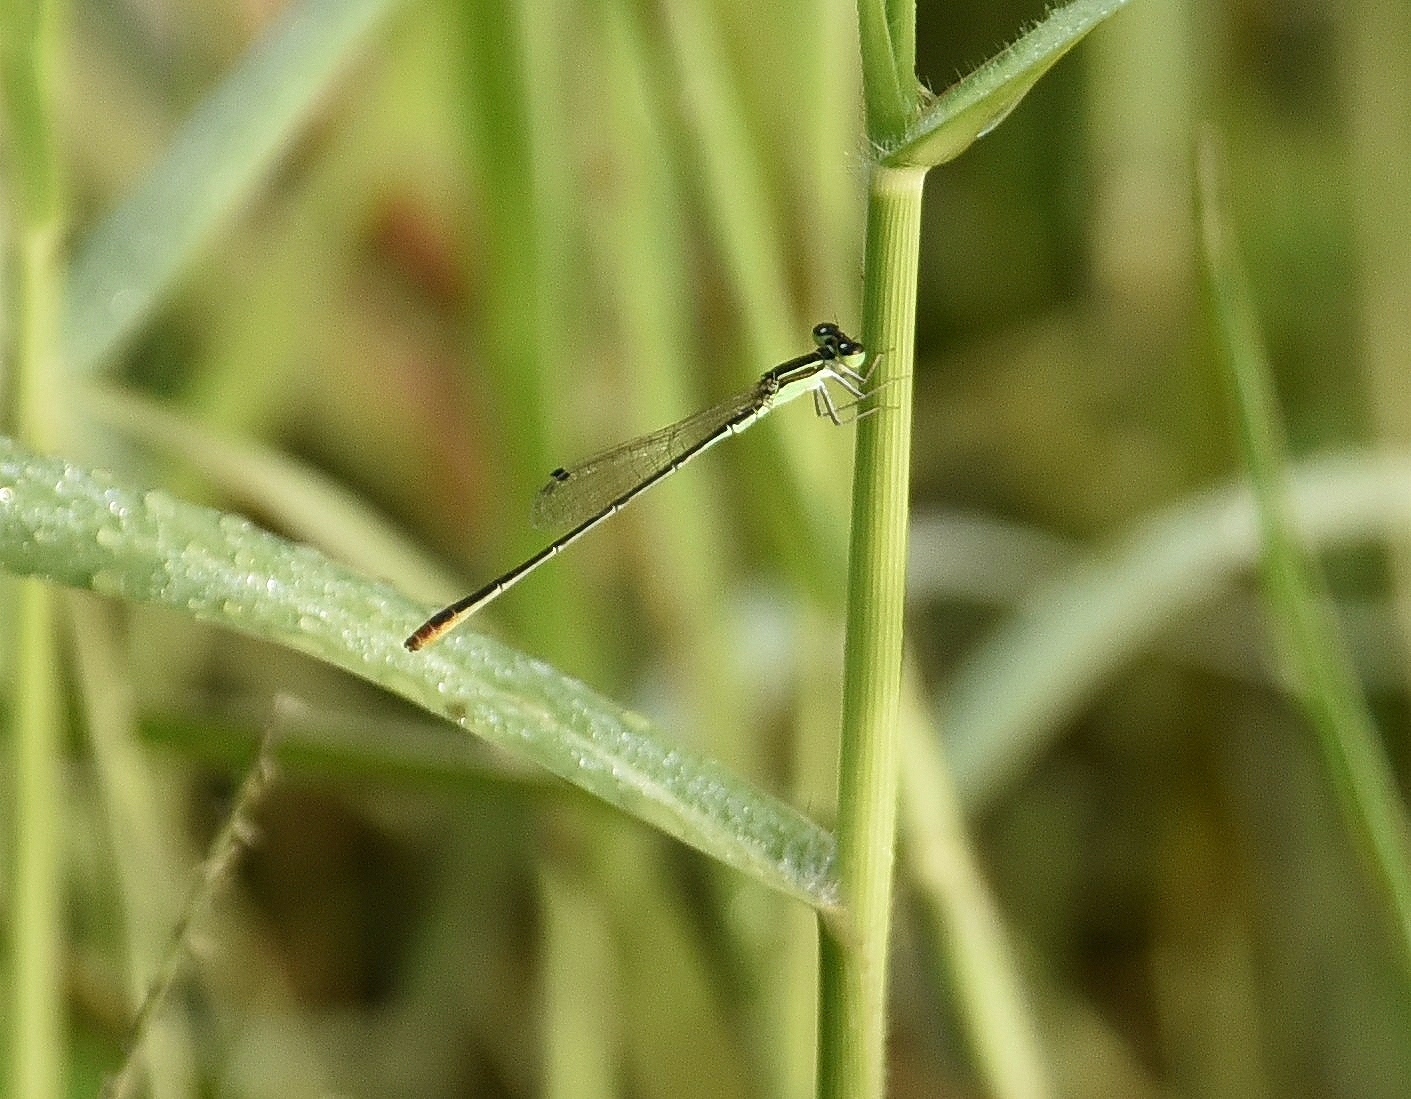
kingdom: Animalia
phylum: Arthropoda
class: Insecta
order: Odonata
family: Coenagrionidae
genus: Agriocnemis
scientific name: Agriocnemis pygmaea
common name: Pygmy wisp
